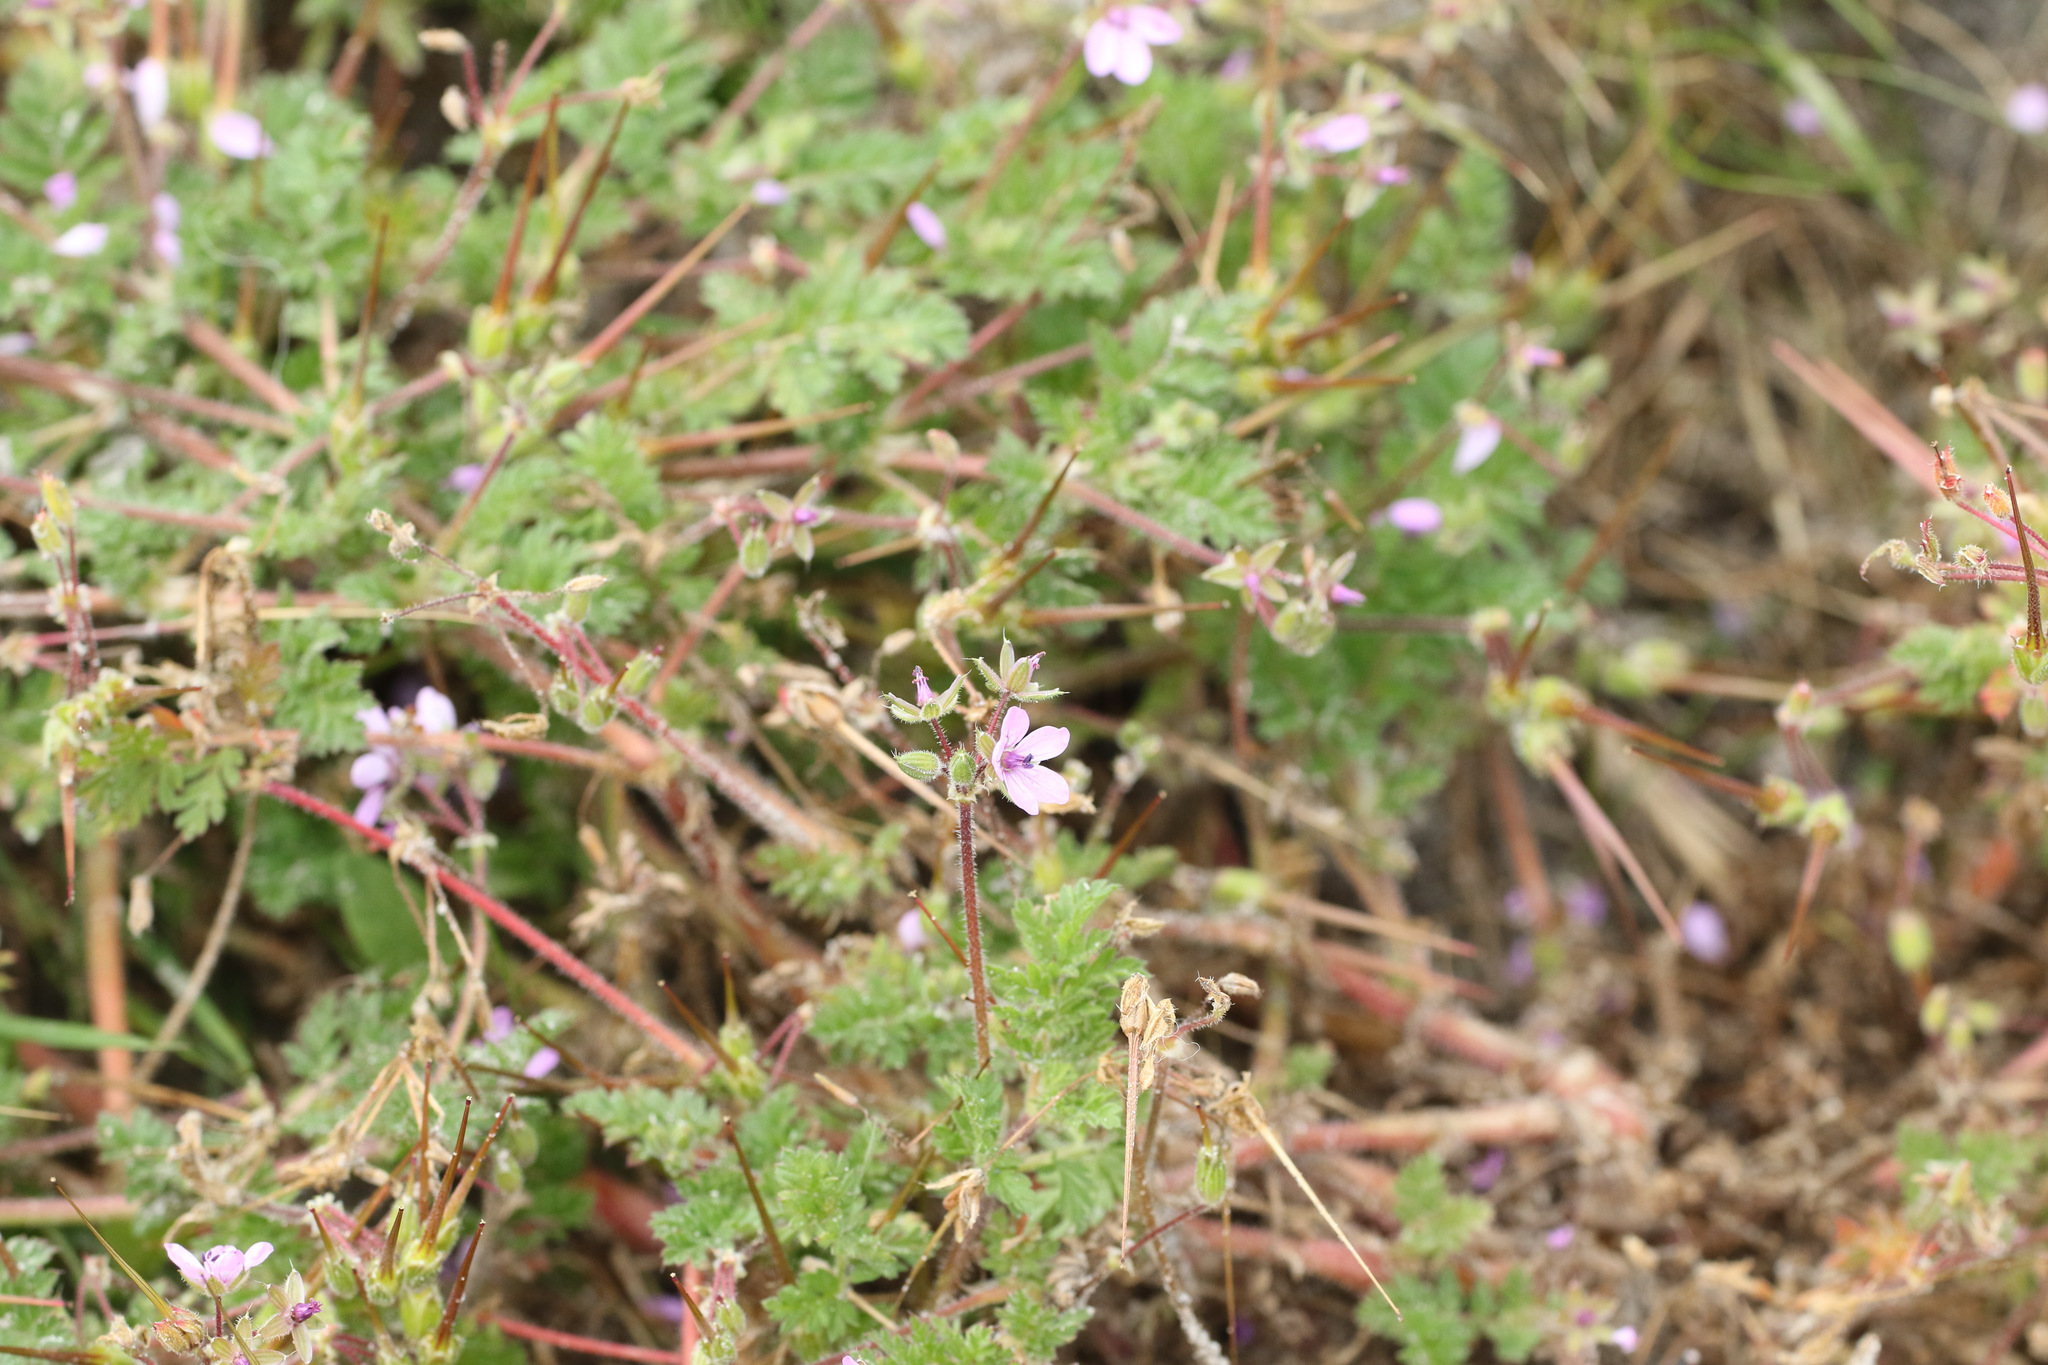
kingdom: Plantae
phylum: Tracheophyta
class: Magnoliopsida
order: Geraniales
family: Geraniaceae
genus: Erodium
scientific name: Erodium cicutarium
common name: Common stork's-bill
